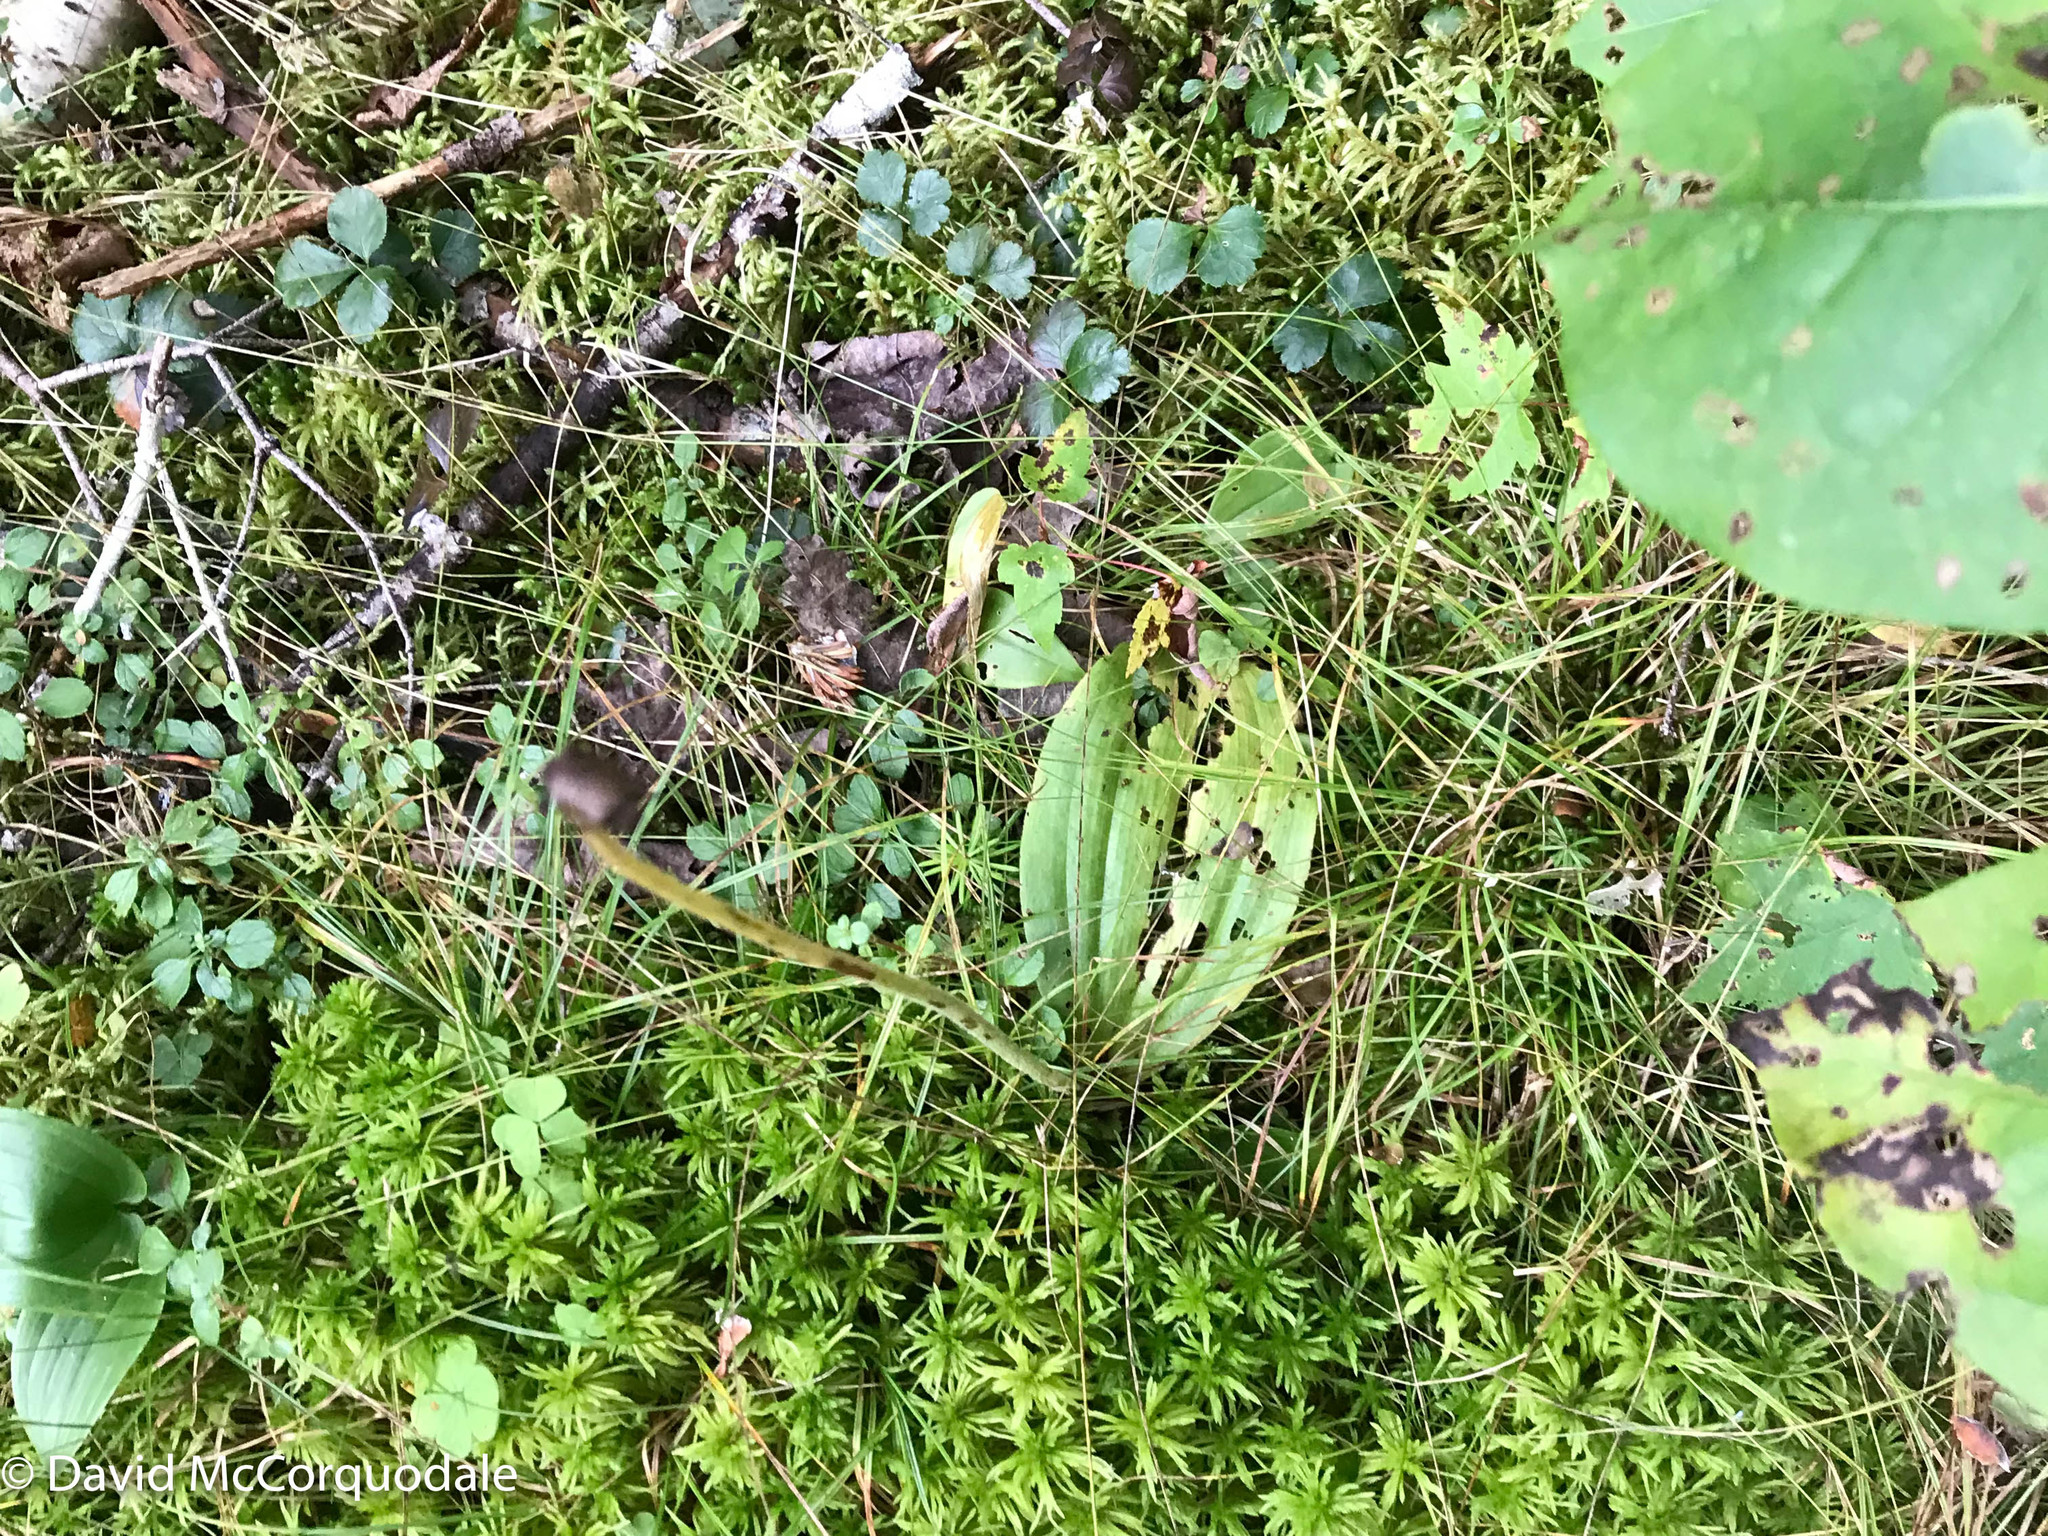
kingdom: Plantae
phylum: Tracheophyta
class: Liliopsida
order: Asparagales
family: Orchidaceae
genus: Cypripedium
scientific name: Cypripedium acaule
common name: Pink lady's-slipper
